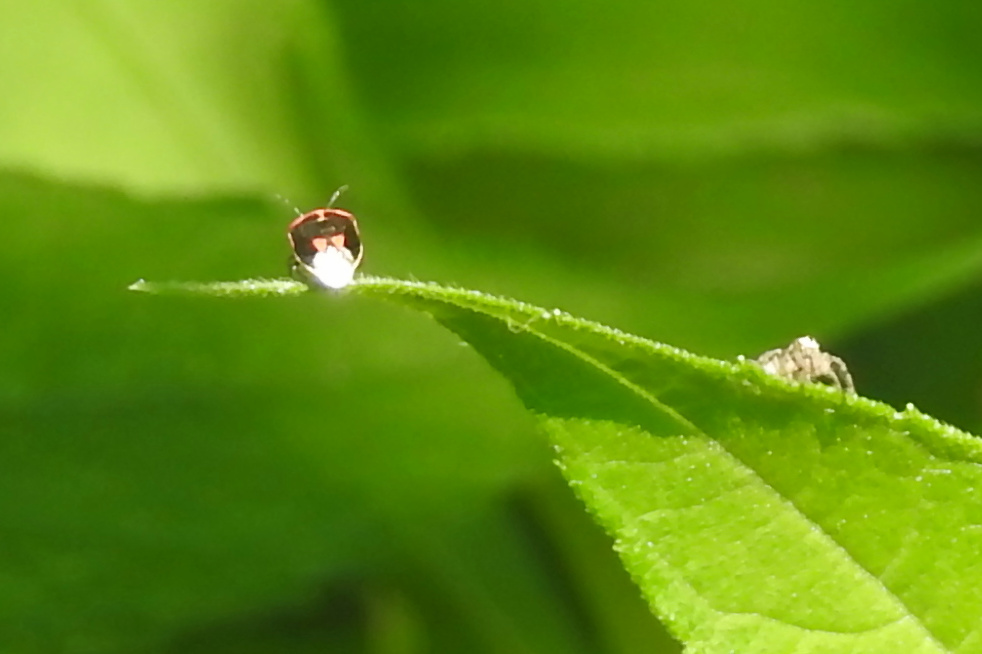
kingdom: Animalia
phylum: Arthropoda
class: Insecta
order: Hemiptera
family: Pentatomidae
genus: Cosmopepla
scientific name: Cosmopepla lintneriana
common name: Twice-stabbed stink bug
